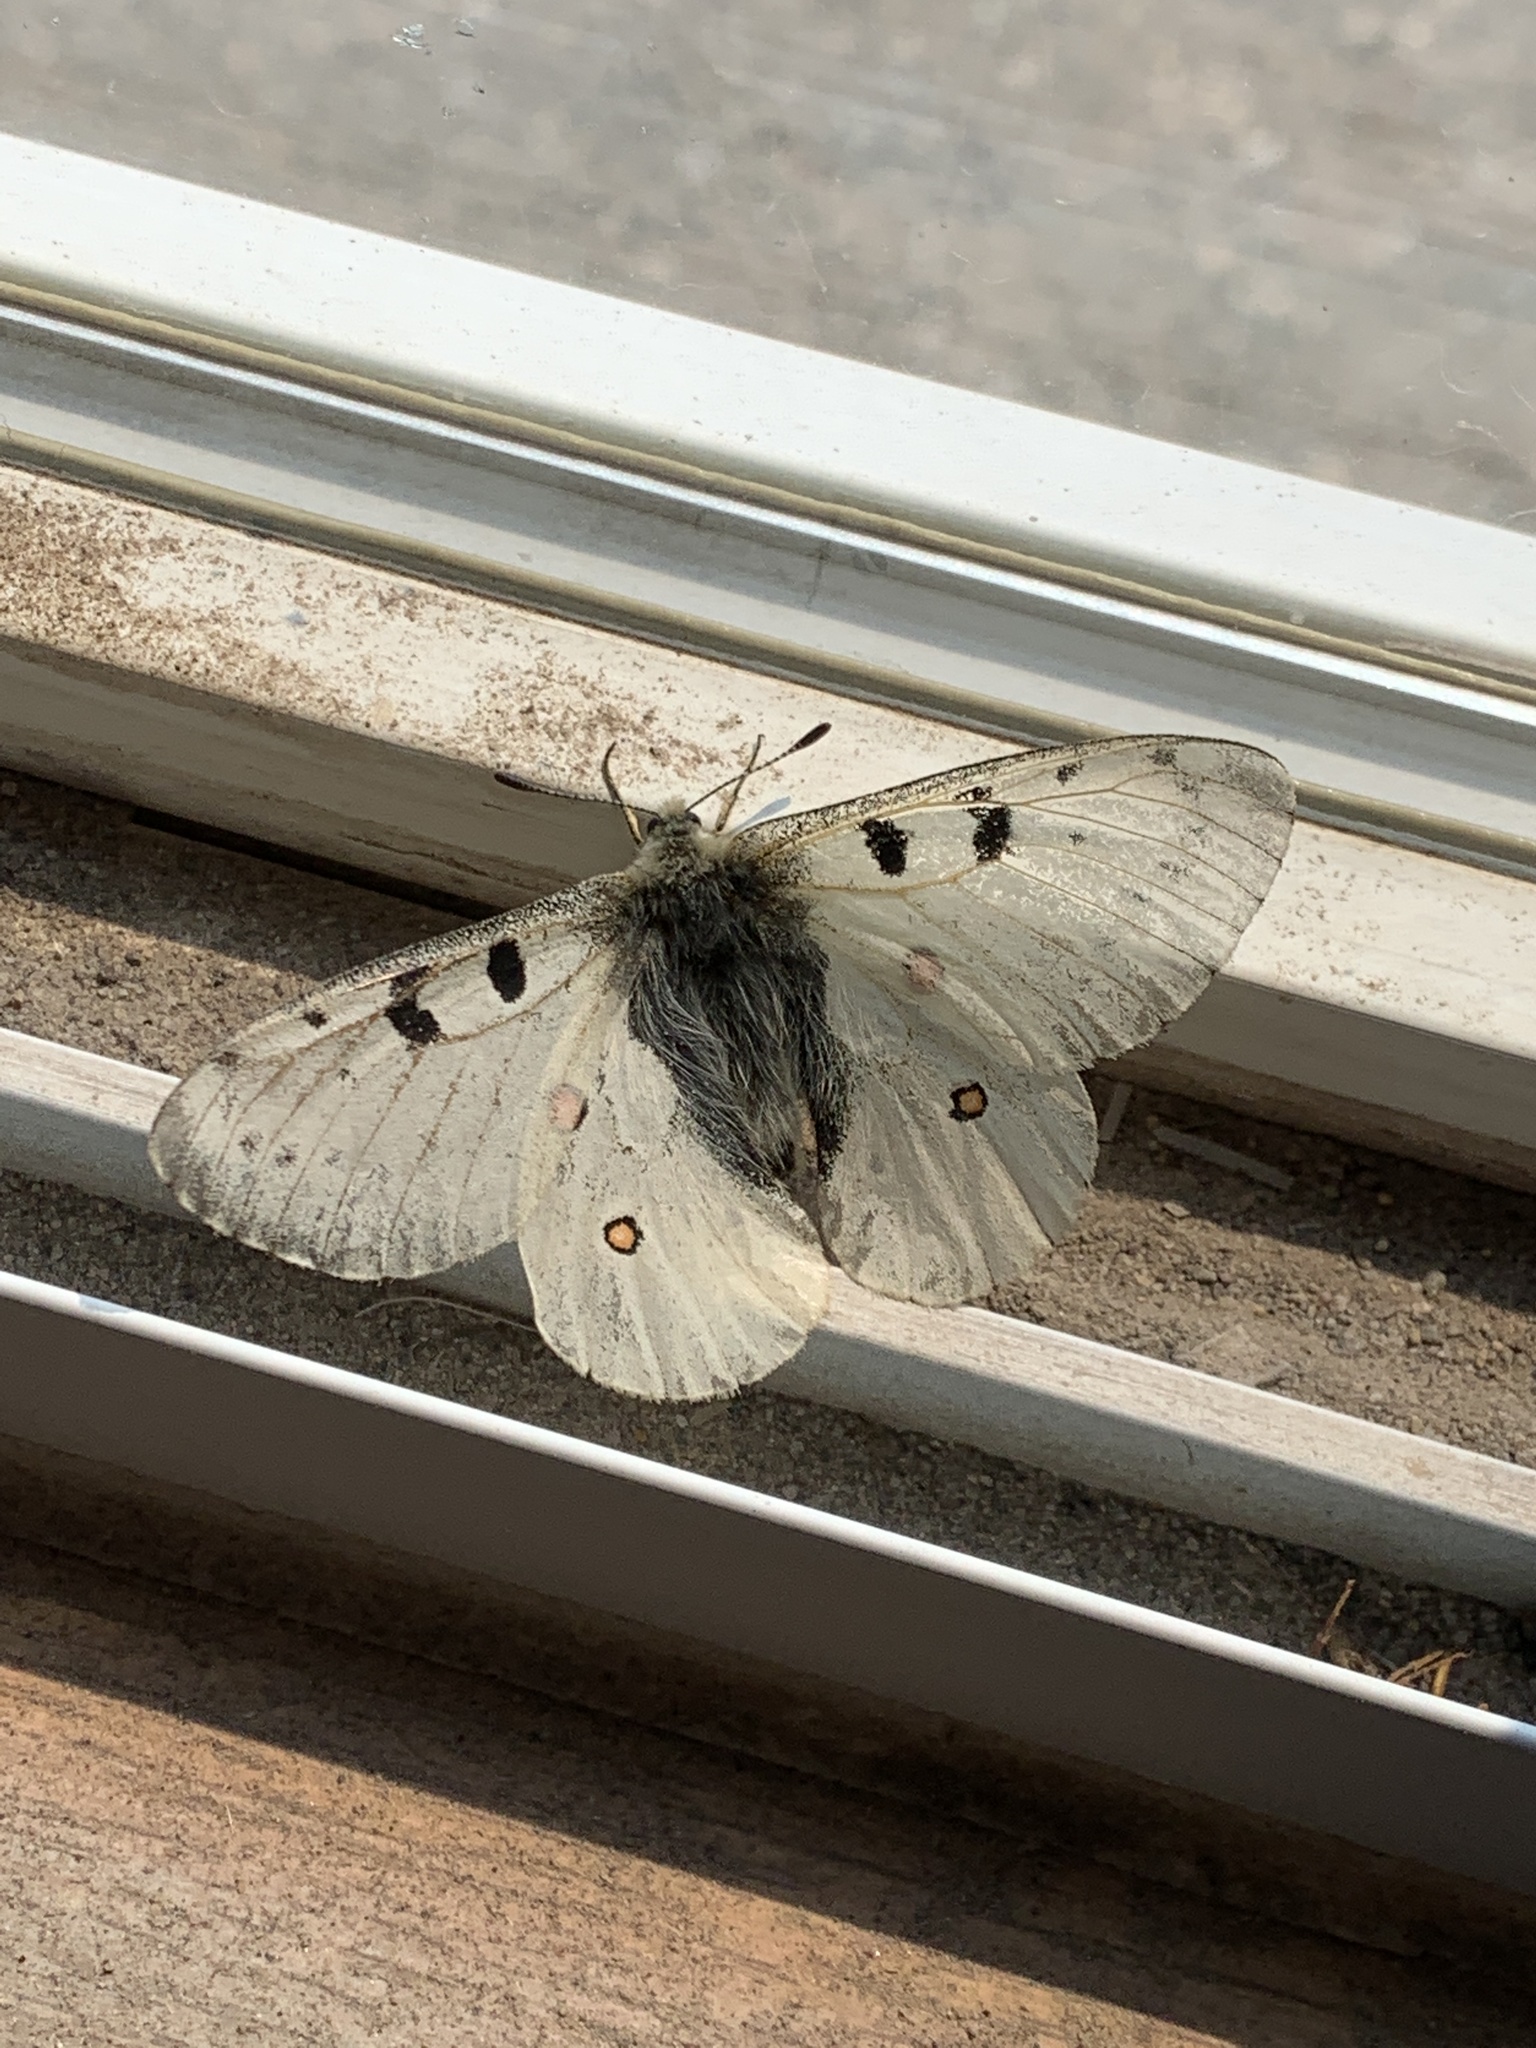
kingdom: Animalia
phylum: Arthropoda
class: Insecta
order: Lepidoptera
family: Papilionidae
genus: Parnassius
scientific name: Parnassius smintheus
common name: Mountain parnassian
